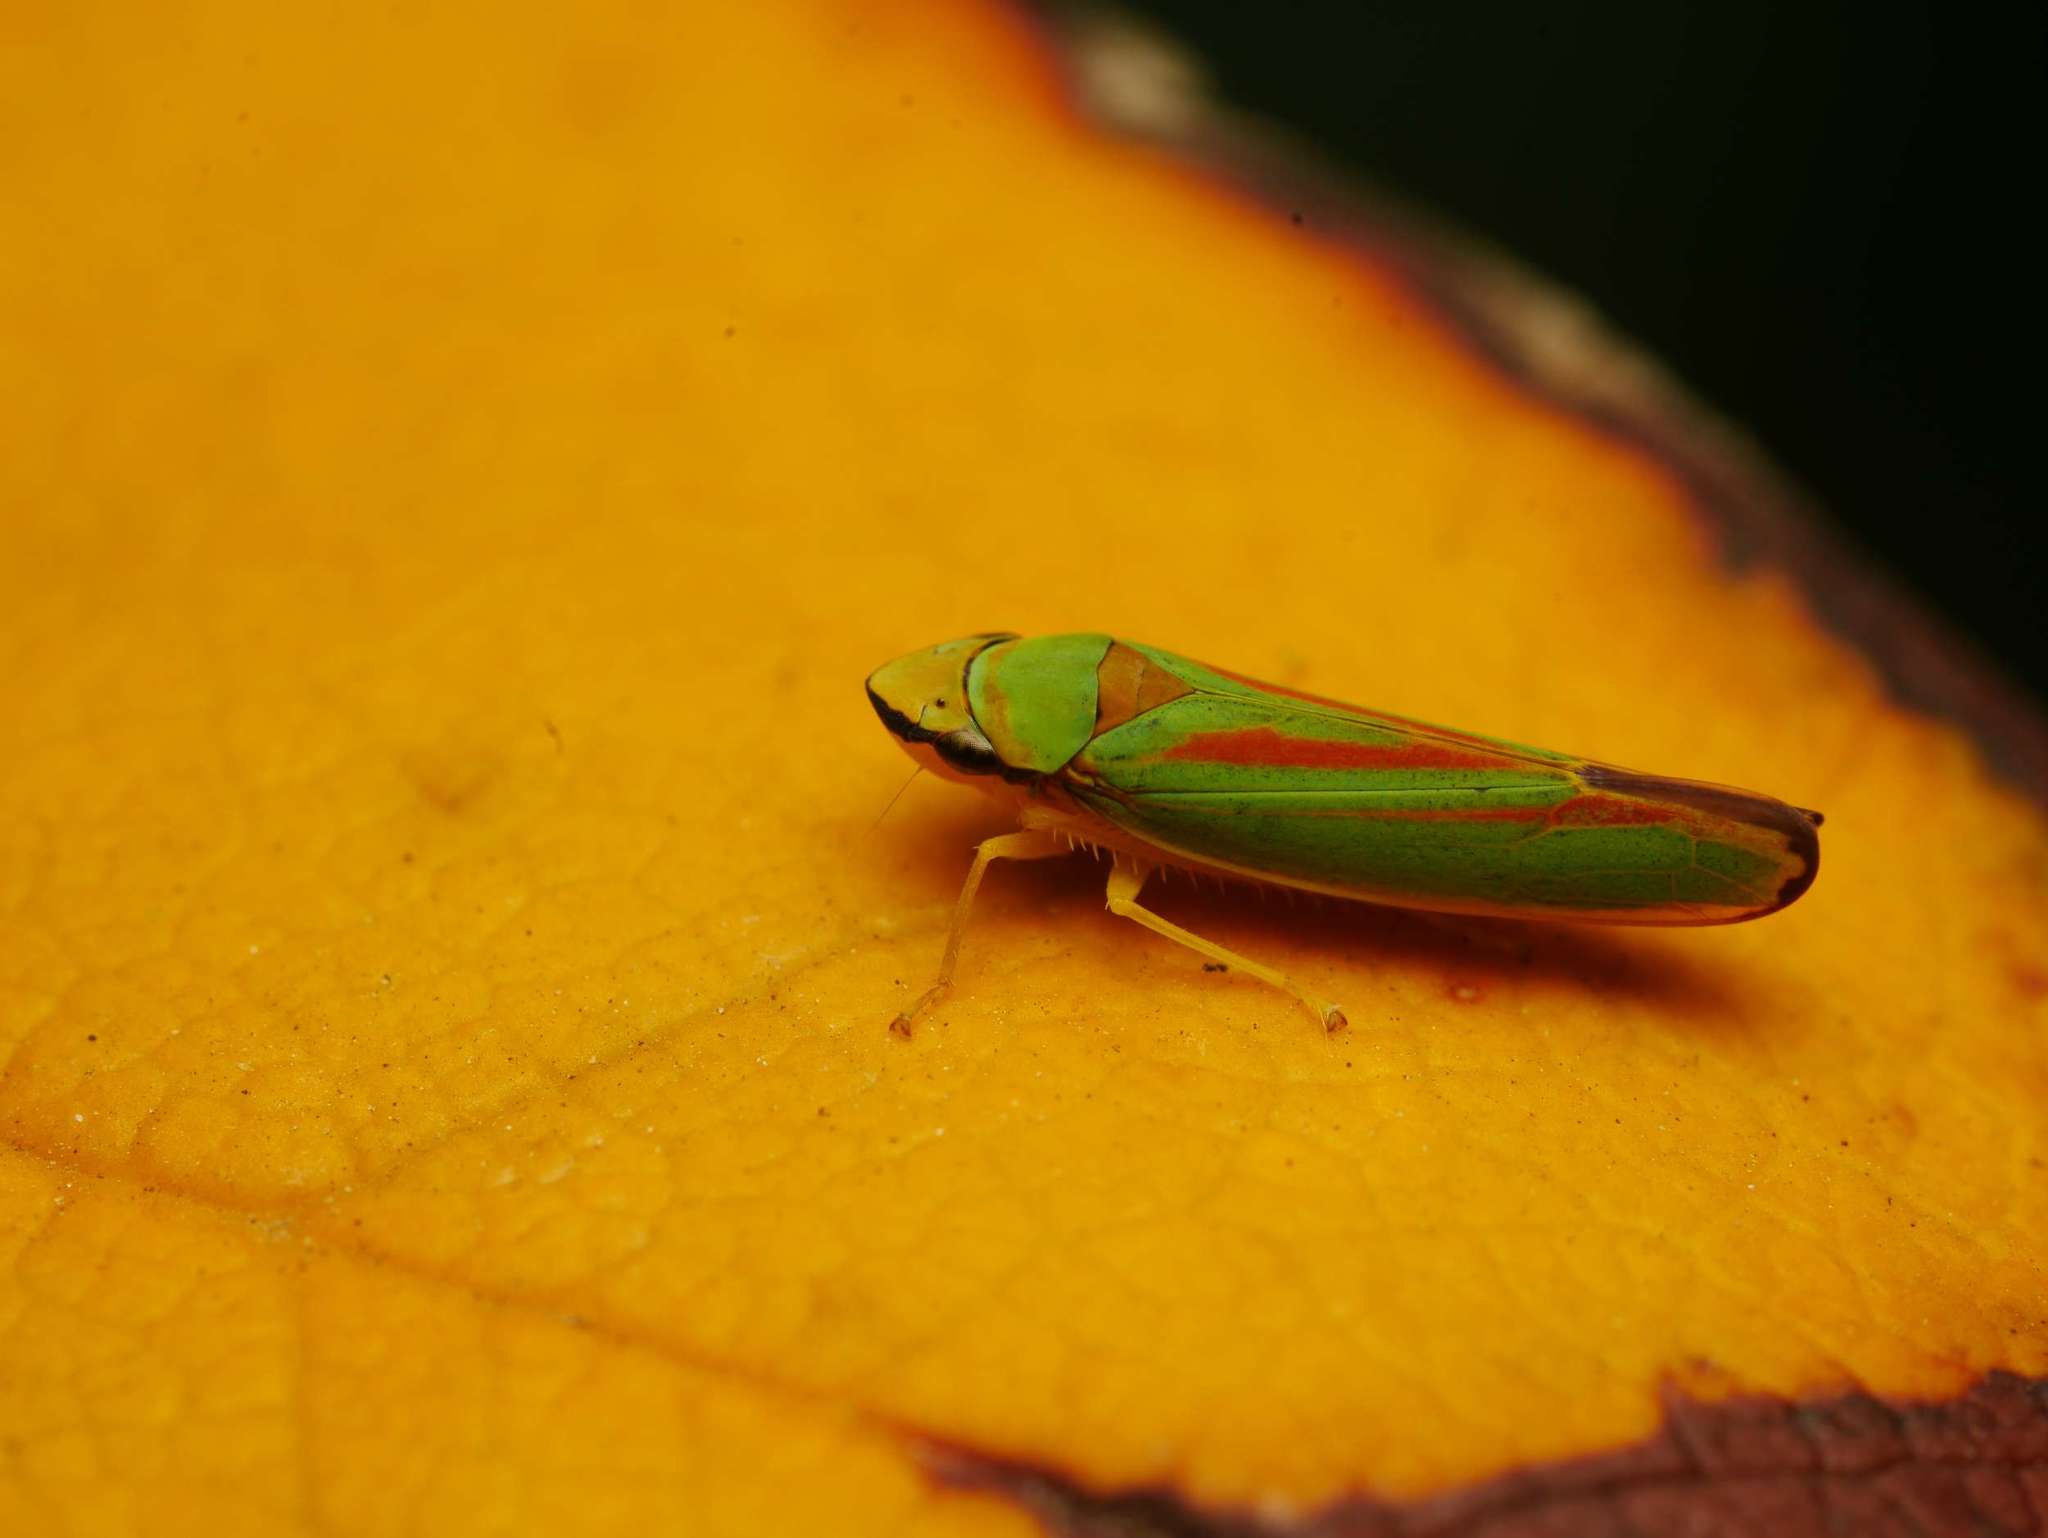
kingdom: Animalia
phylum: Arthropoda
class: Insecta
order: Hemiptera
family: Cicadellidae
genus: Graphocephala
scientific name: Graphocephala fennahi
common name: Rhododendron leafhopper
